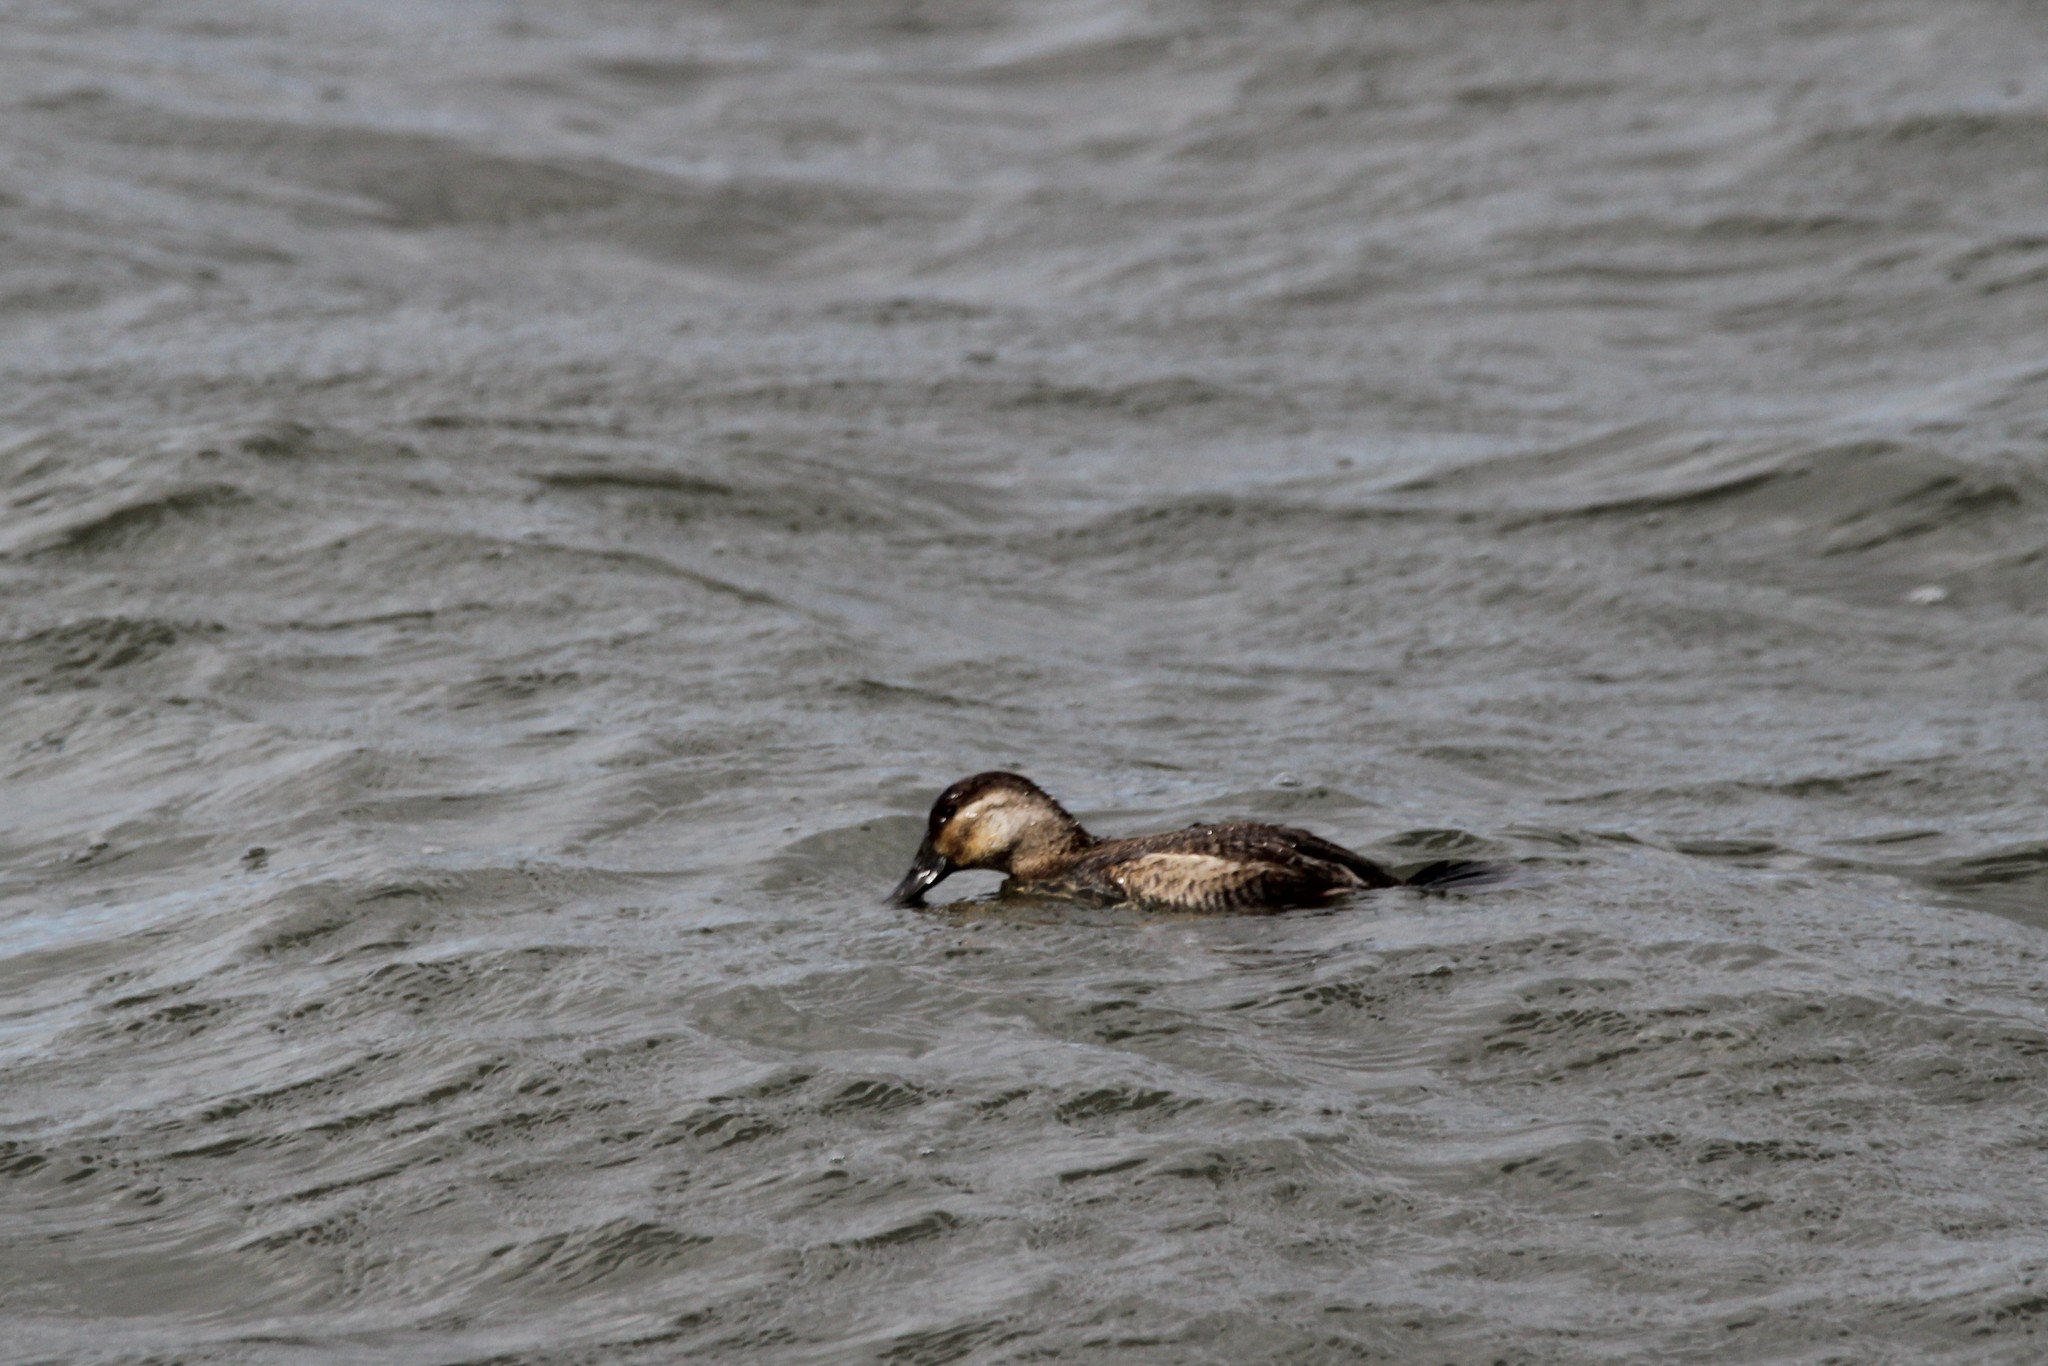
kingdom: Animalia
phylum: Chordata
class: Aves
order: Anseriformes
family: Anatidae
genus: Oxyura
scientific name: Oxyura jamaicensis
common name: Ruddy duck
